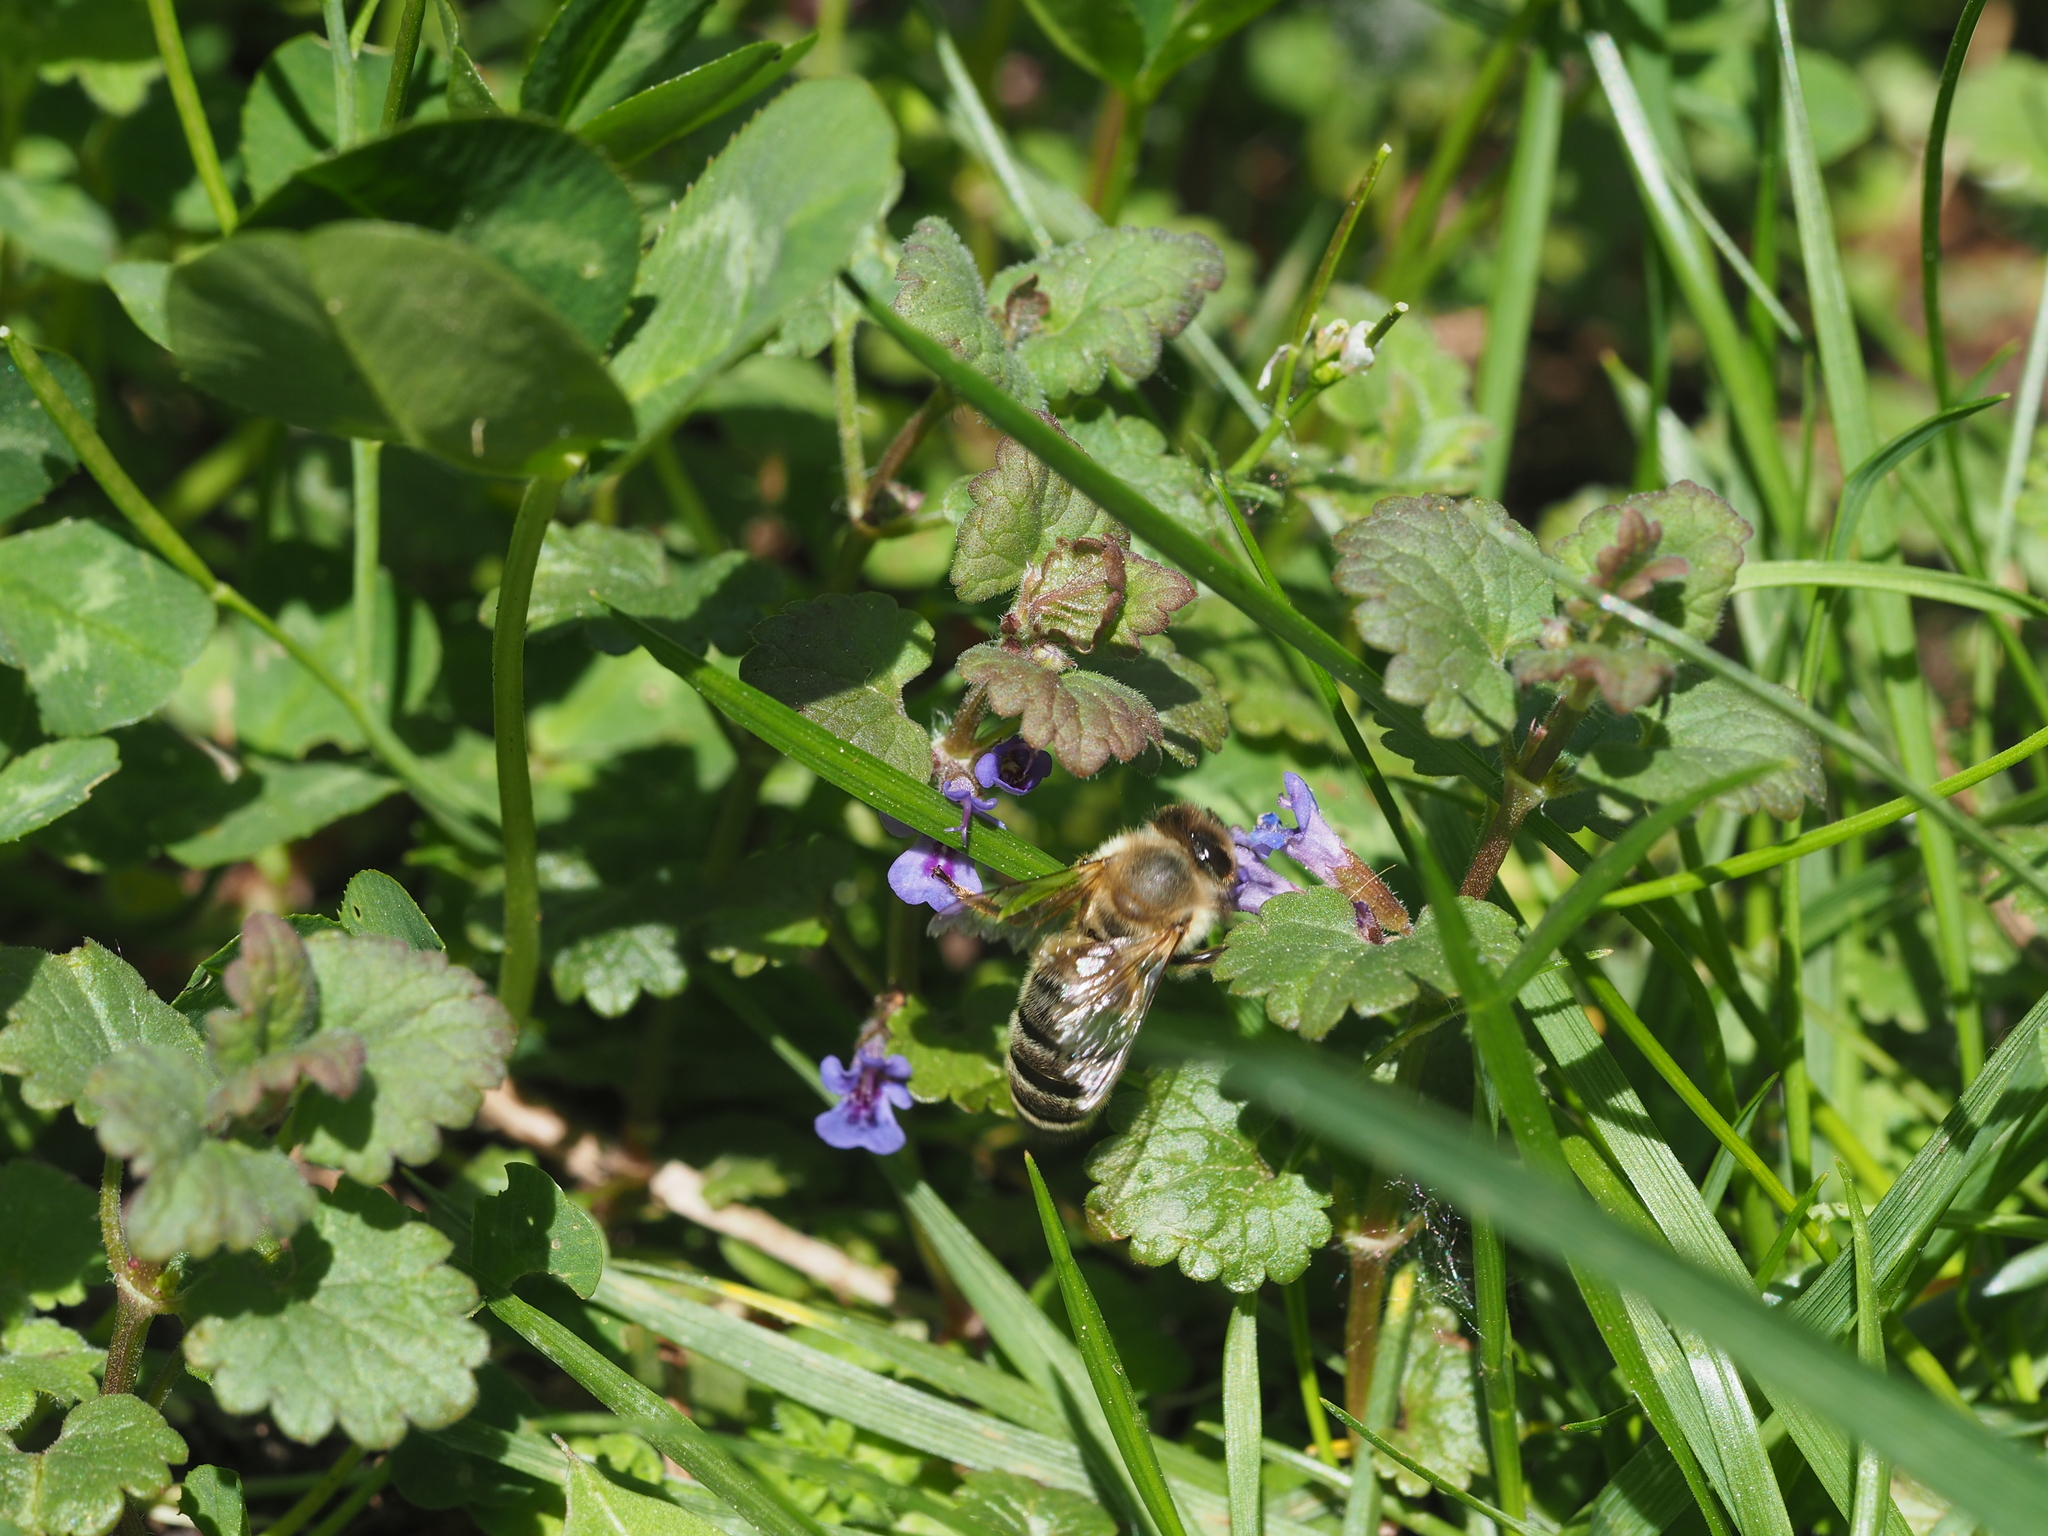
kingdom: Animalia
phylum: Arthropoda
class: Insecta
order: Hymenoptera
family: Apidae
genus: Apis
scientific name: Apis mellifera
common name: Honey bee
